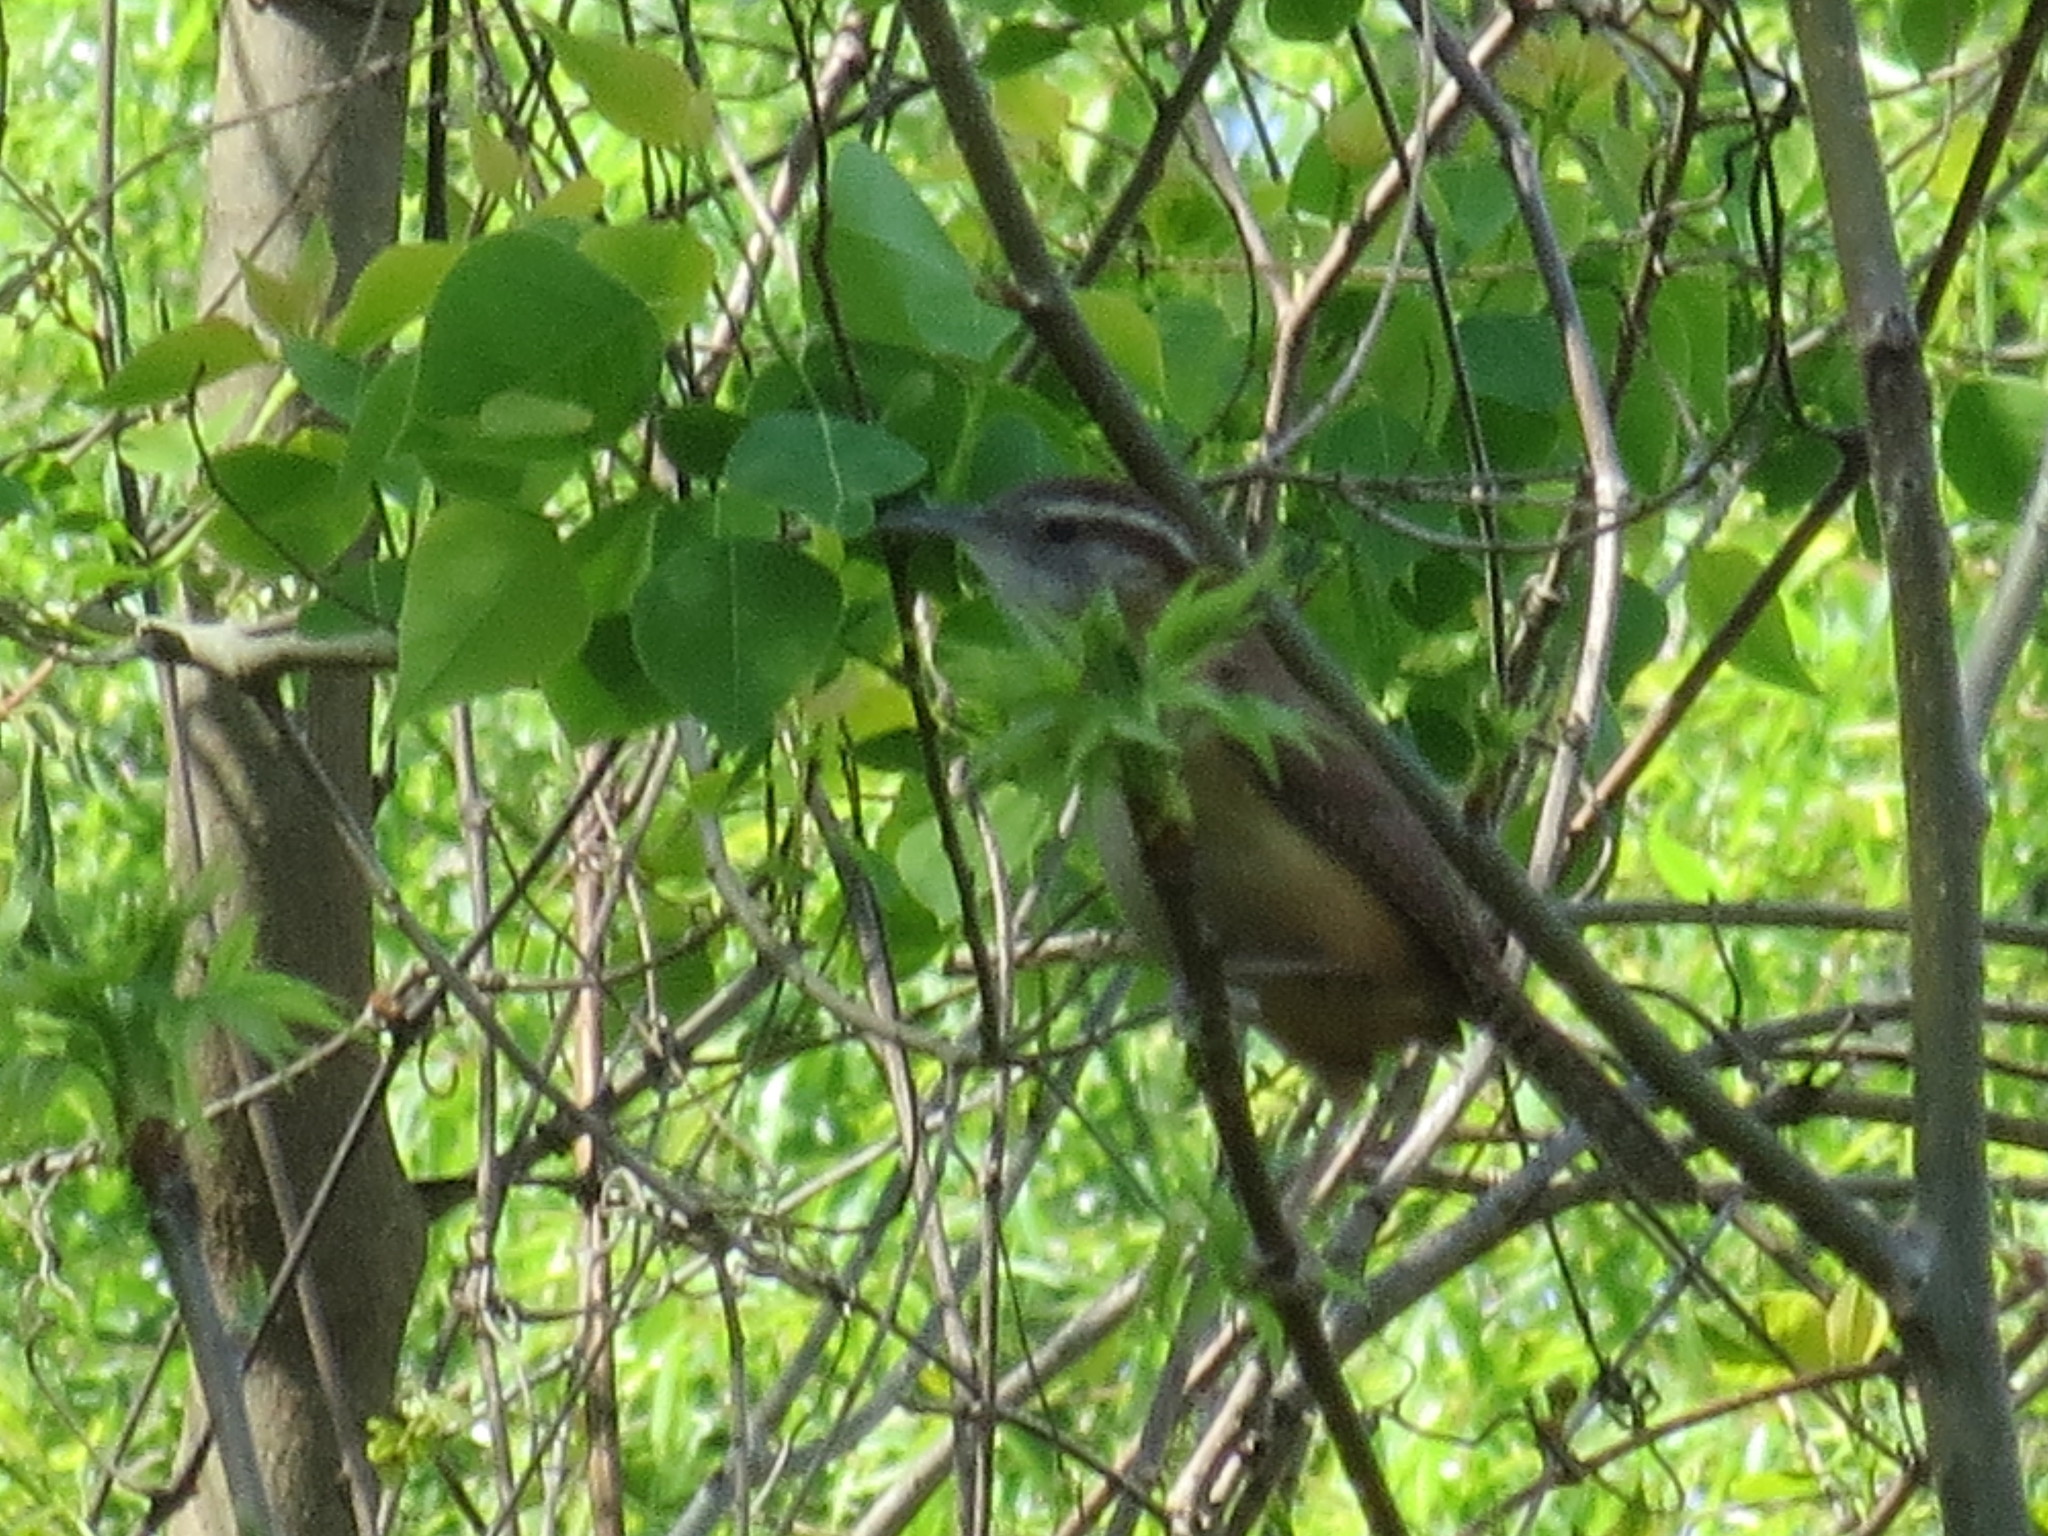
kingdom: Animalia
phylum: Chordata
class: Aves
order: Passeriformes
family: Troglodytidae
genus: Thryothorus
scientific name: Thryothorus ludovicianus
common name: Carolina wren
